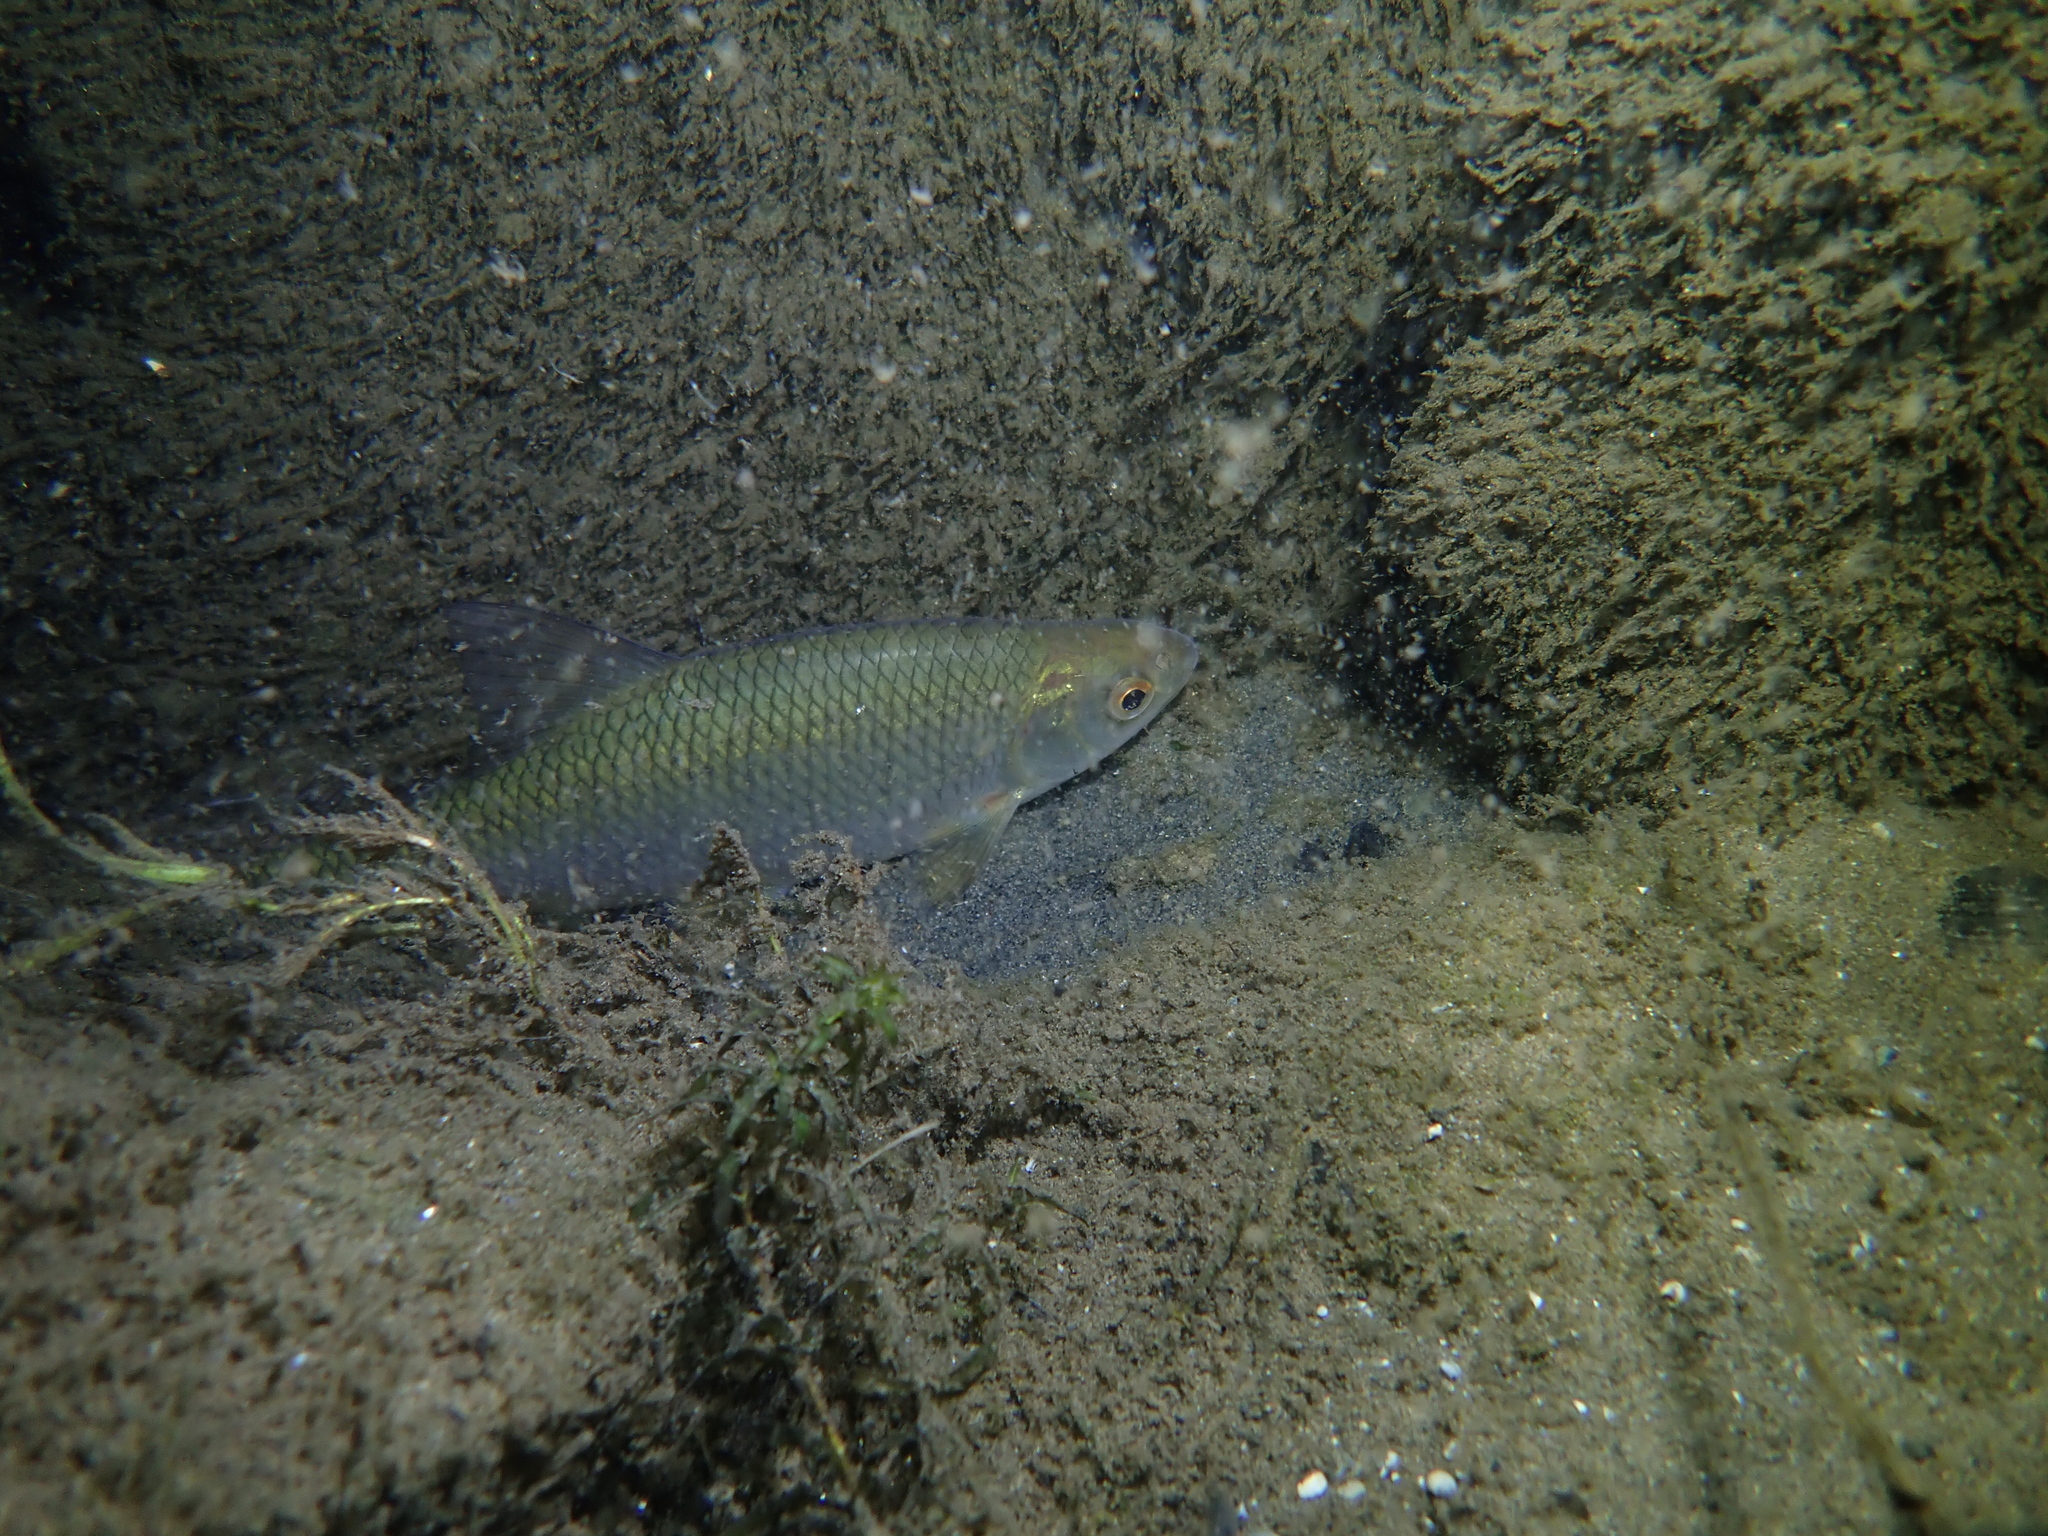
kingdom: Animalia
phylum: Chordata
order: Cypriniformes
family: Cyprinidae
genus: Rutilus
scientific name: Rutilus rutilus
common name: Roach
